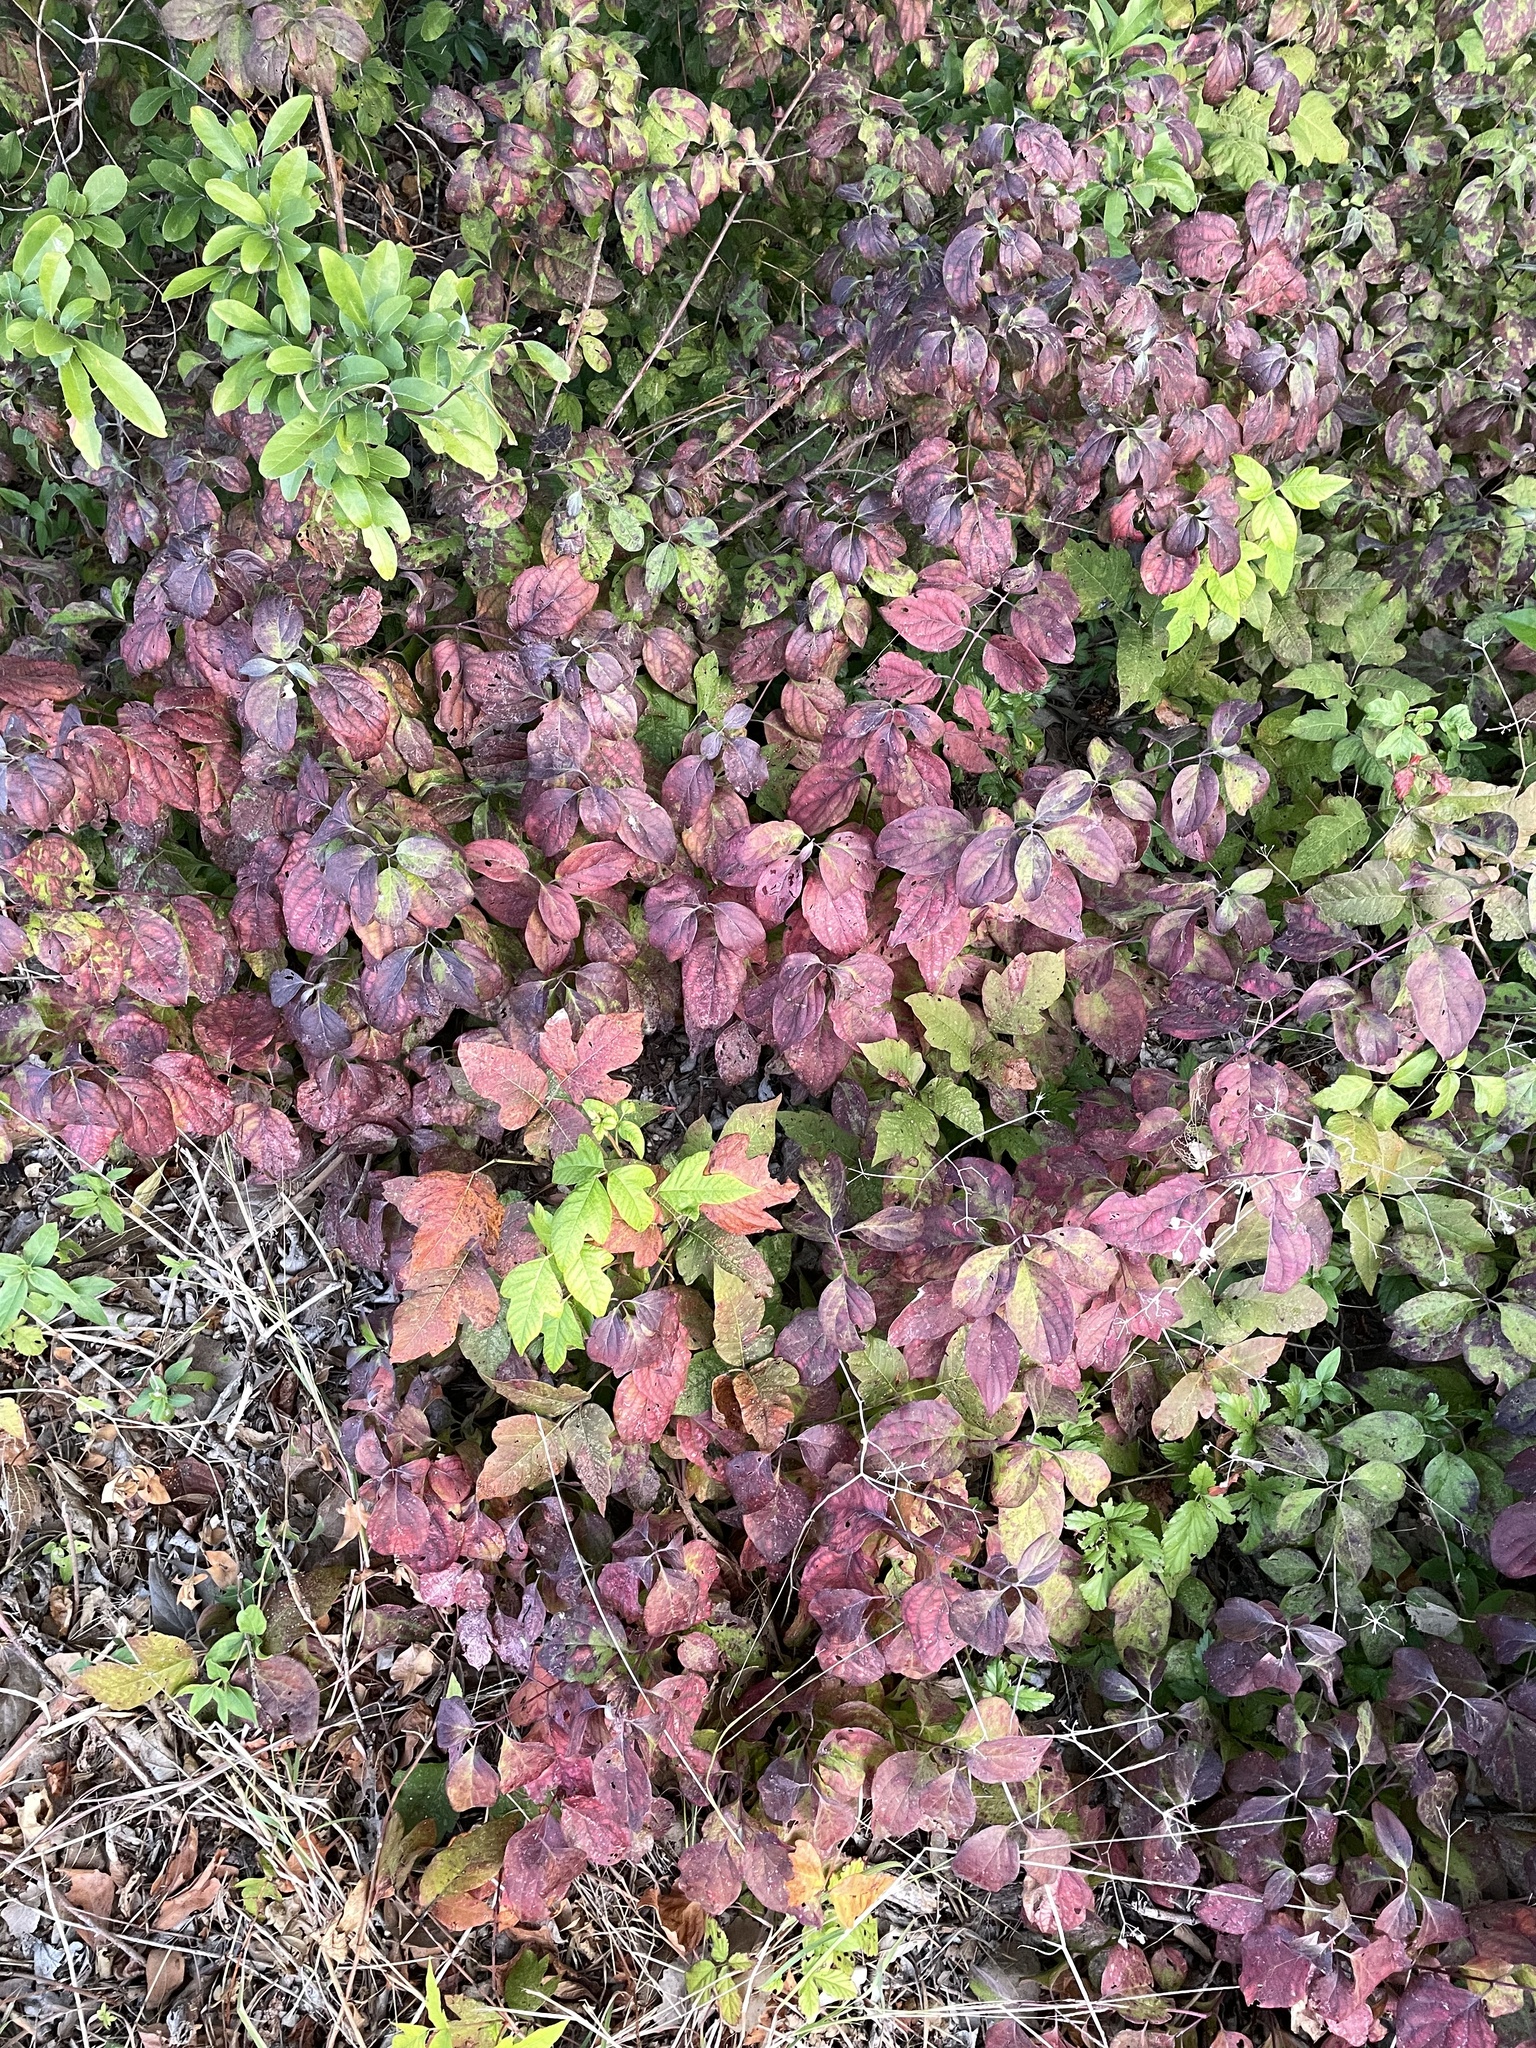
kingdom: Plantae
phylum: Tracheophyta
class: Magnoliopsida
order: Cornales
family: Cornaceae
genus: Cornus
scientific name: Cornus drummondii
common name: Rough-leaf dogwood
